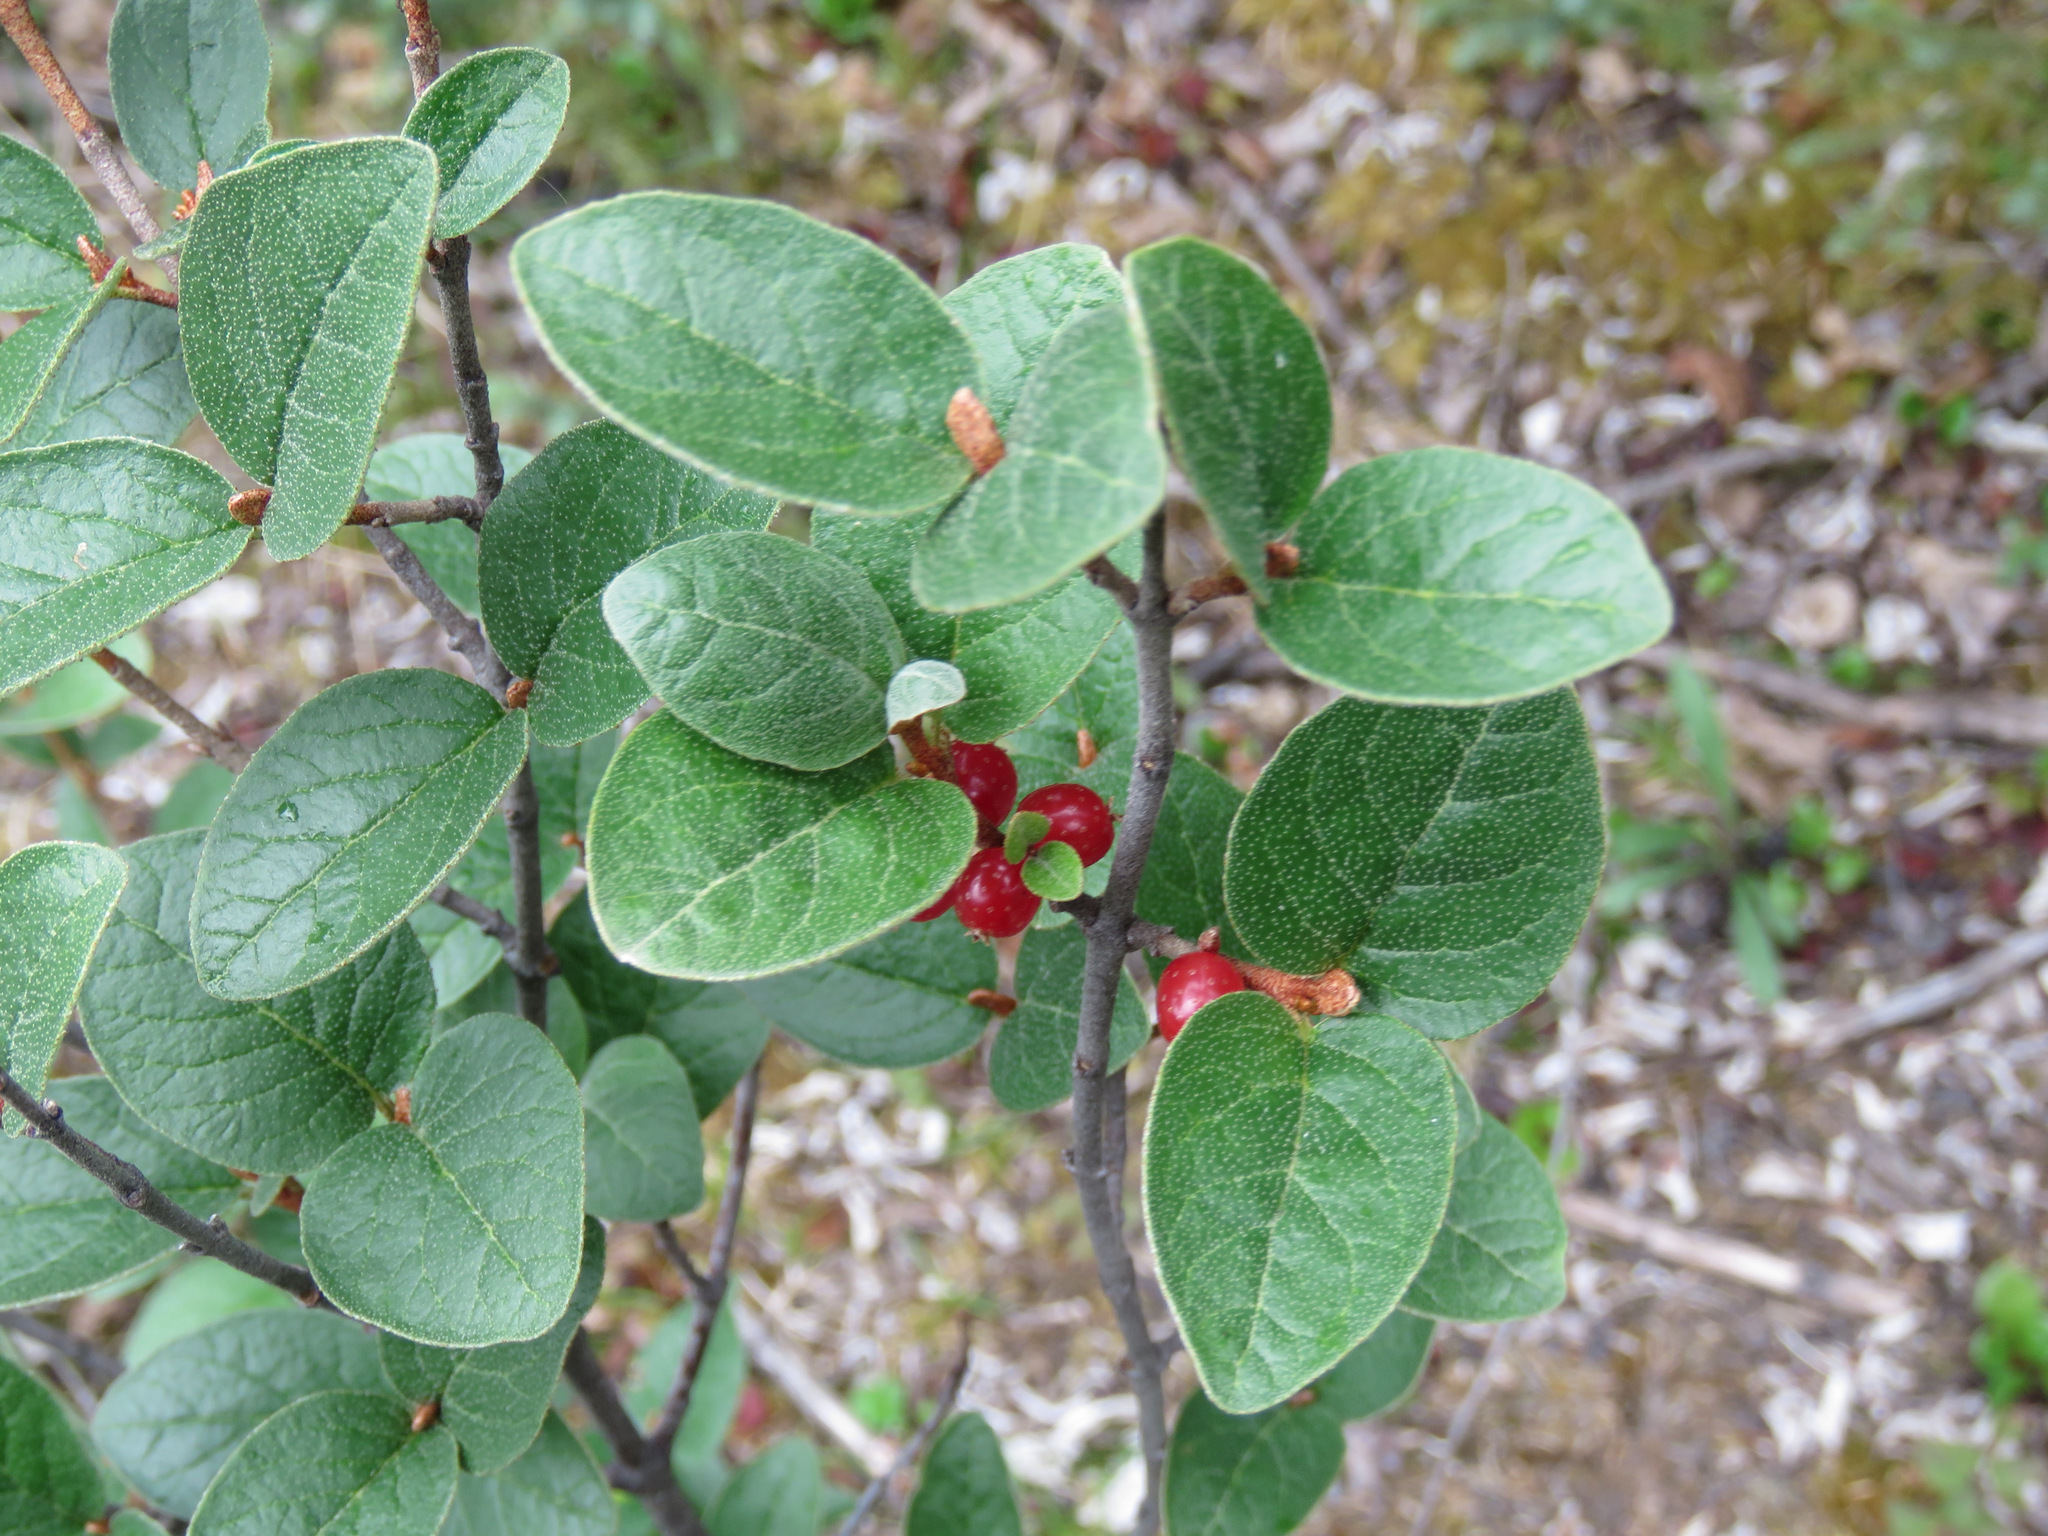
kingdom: Plantae
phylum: Tracheophyta
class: Magnoliopsida
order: Rosales
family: Elaeagnaceae
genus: Shepherdia
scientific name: Shepherdia canadensis
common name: Soapberry
